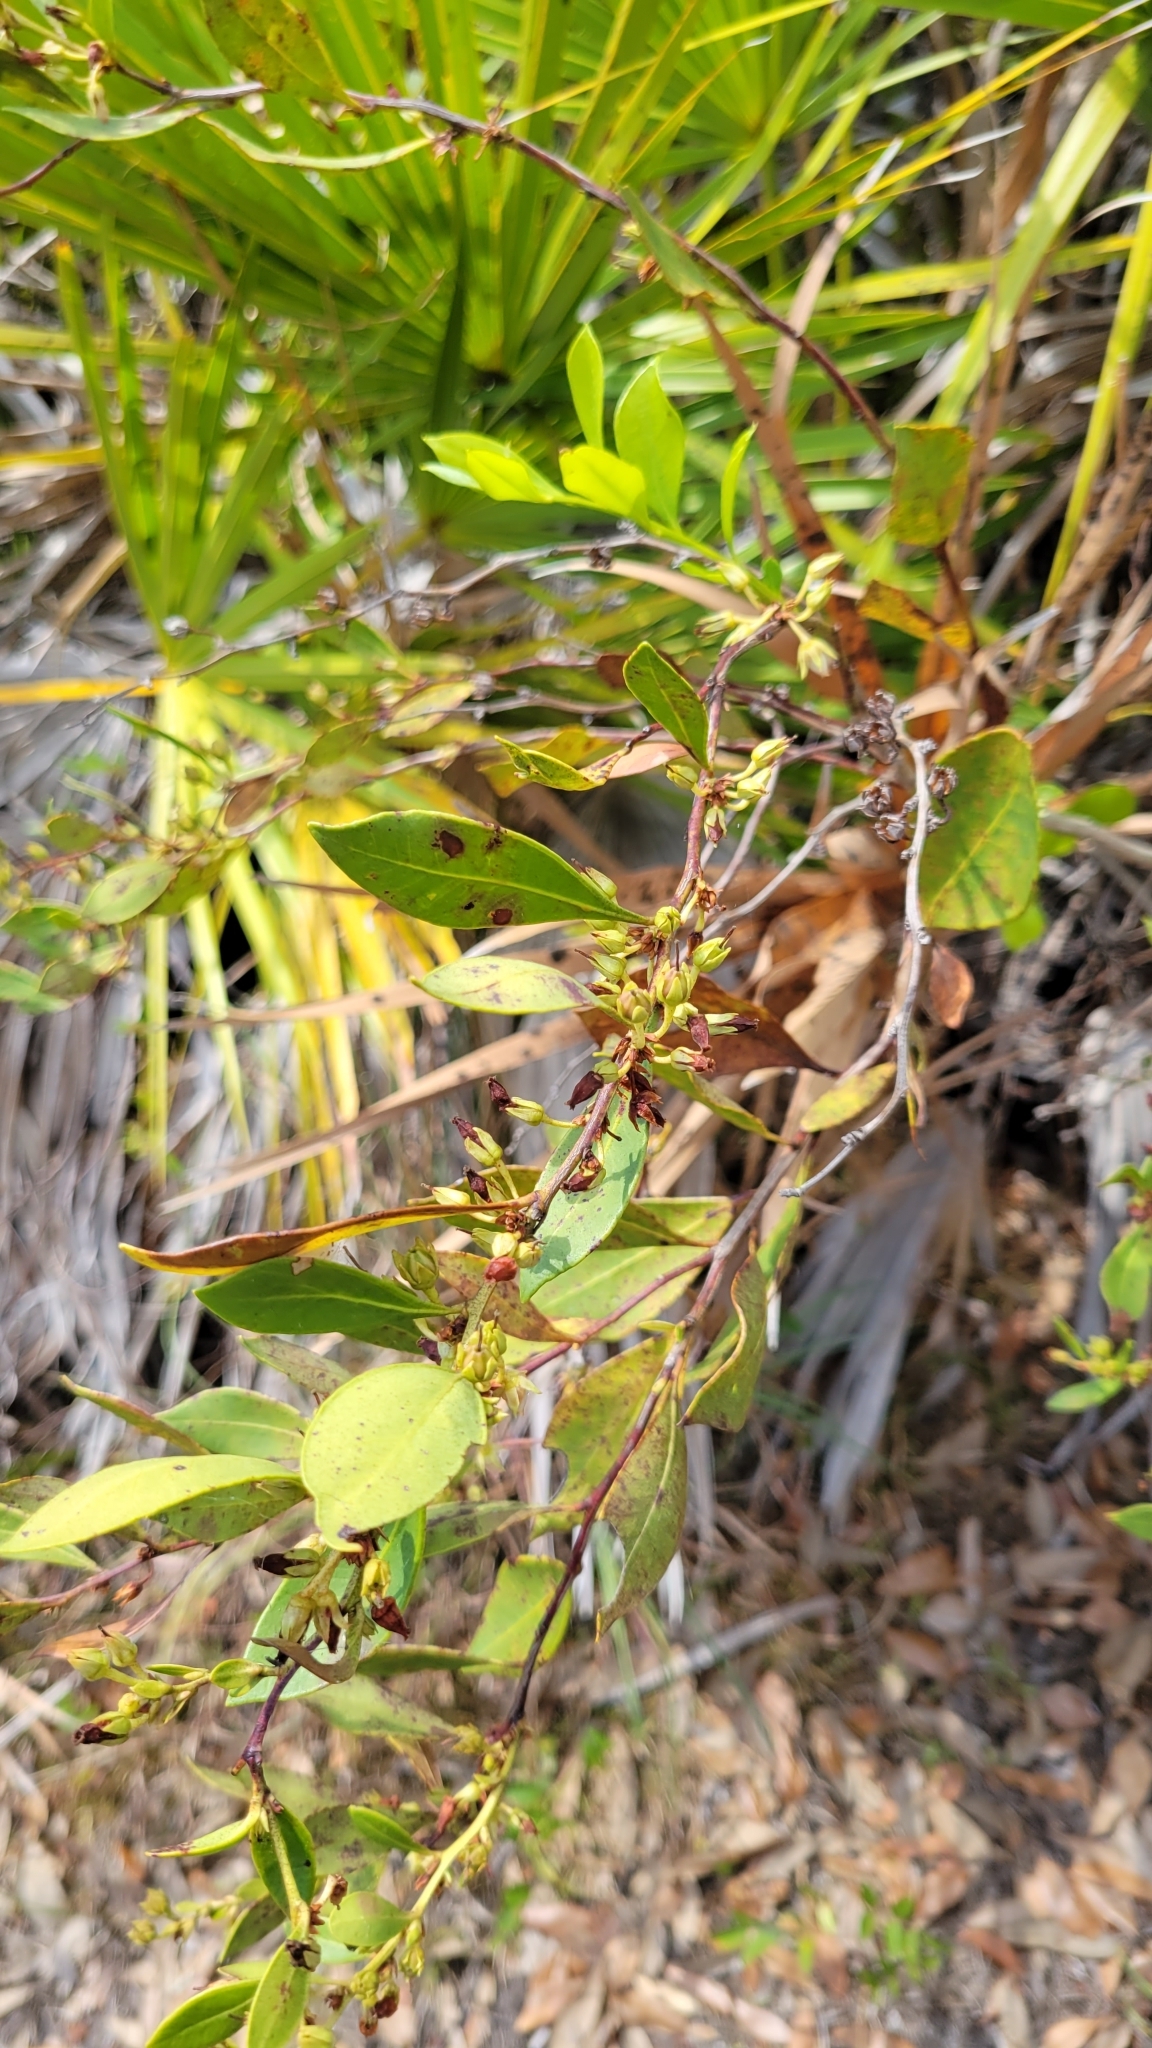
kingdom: Plantae
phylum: Tracheophyta
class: Magnoliopsida
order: Ericales
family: Ericaceae
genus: Lyonia
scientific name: Lyonia lucida
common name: Fetterbush
